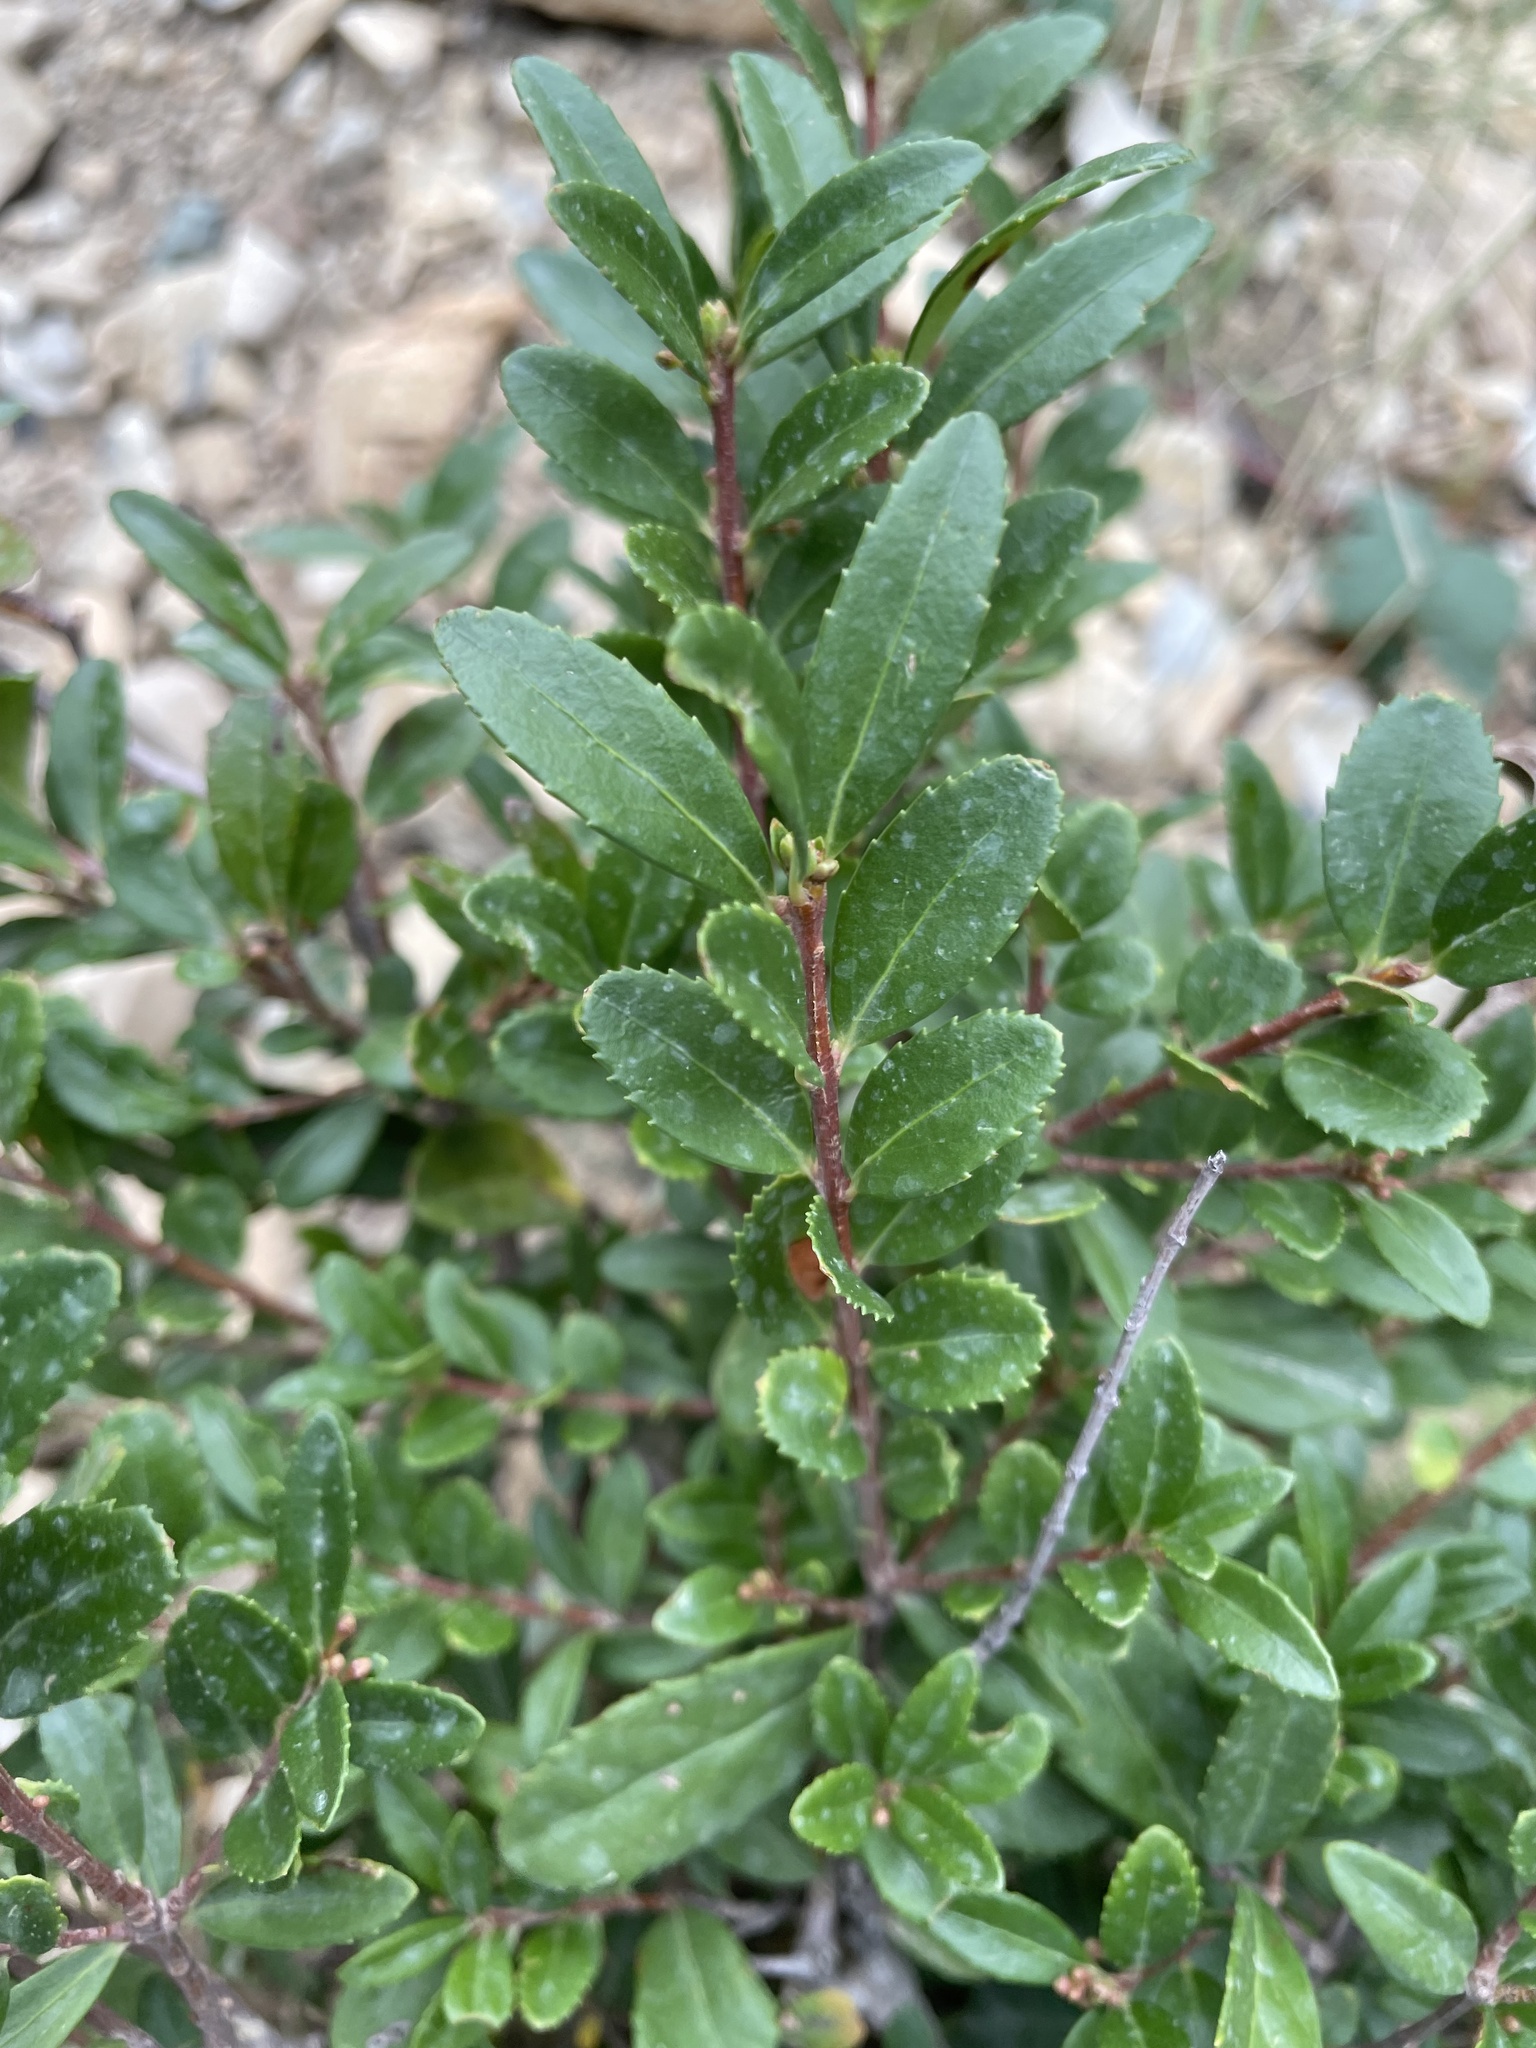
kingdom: Plantae
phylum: Tracheophyta
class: Magnoliopsida
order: Celastrales
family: Celastraceae
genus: Paxistima
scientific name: Paxistima myrsinites
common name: Mountain-lover
